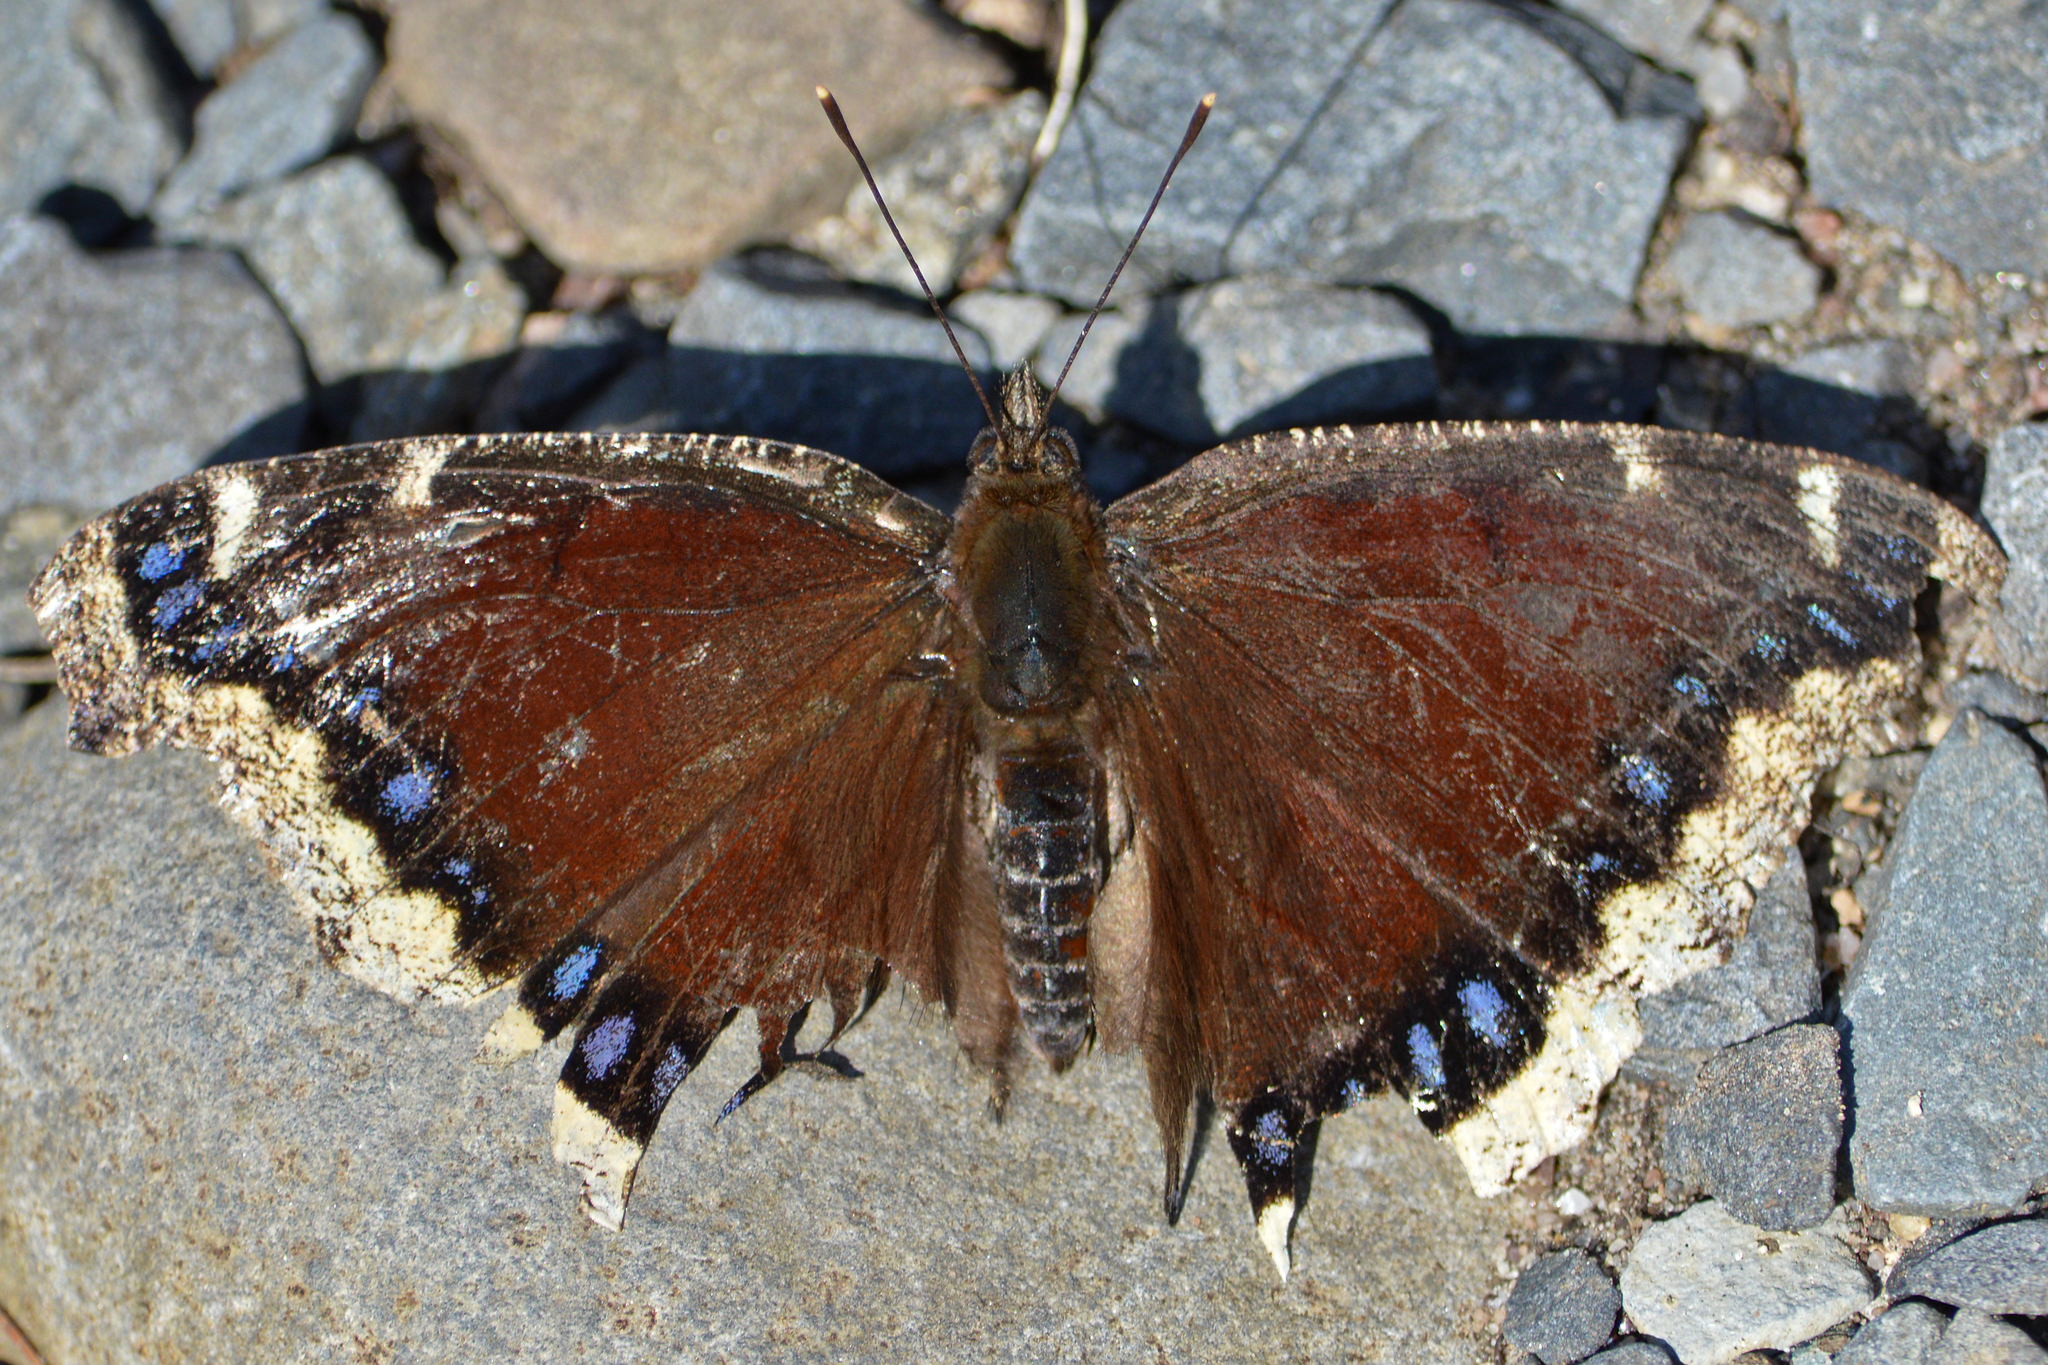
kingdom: Animalia
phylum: Arthropoda
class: Insecta
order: Lepidoptera
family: Nymphalidae
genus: Nymphalis
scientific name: Nymphalis antiopa
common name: Camberwell beauty
